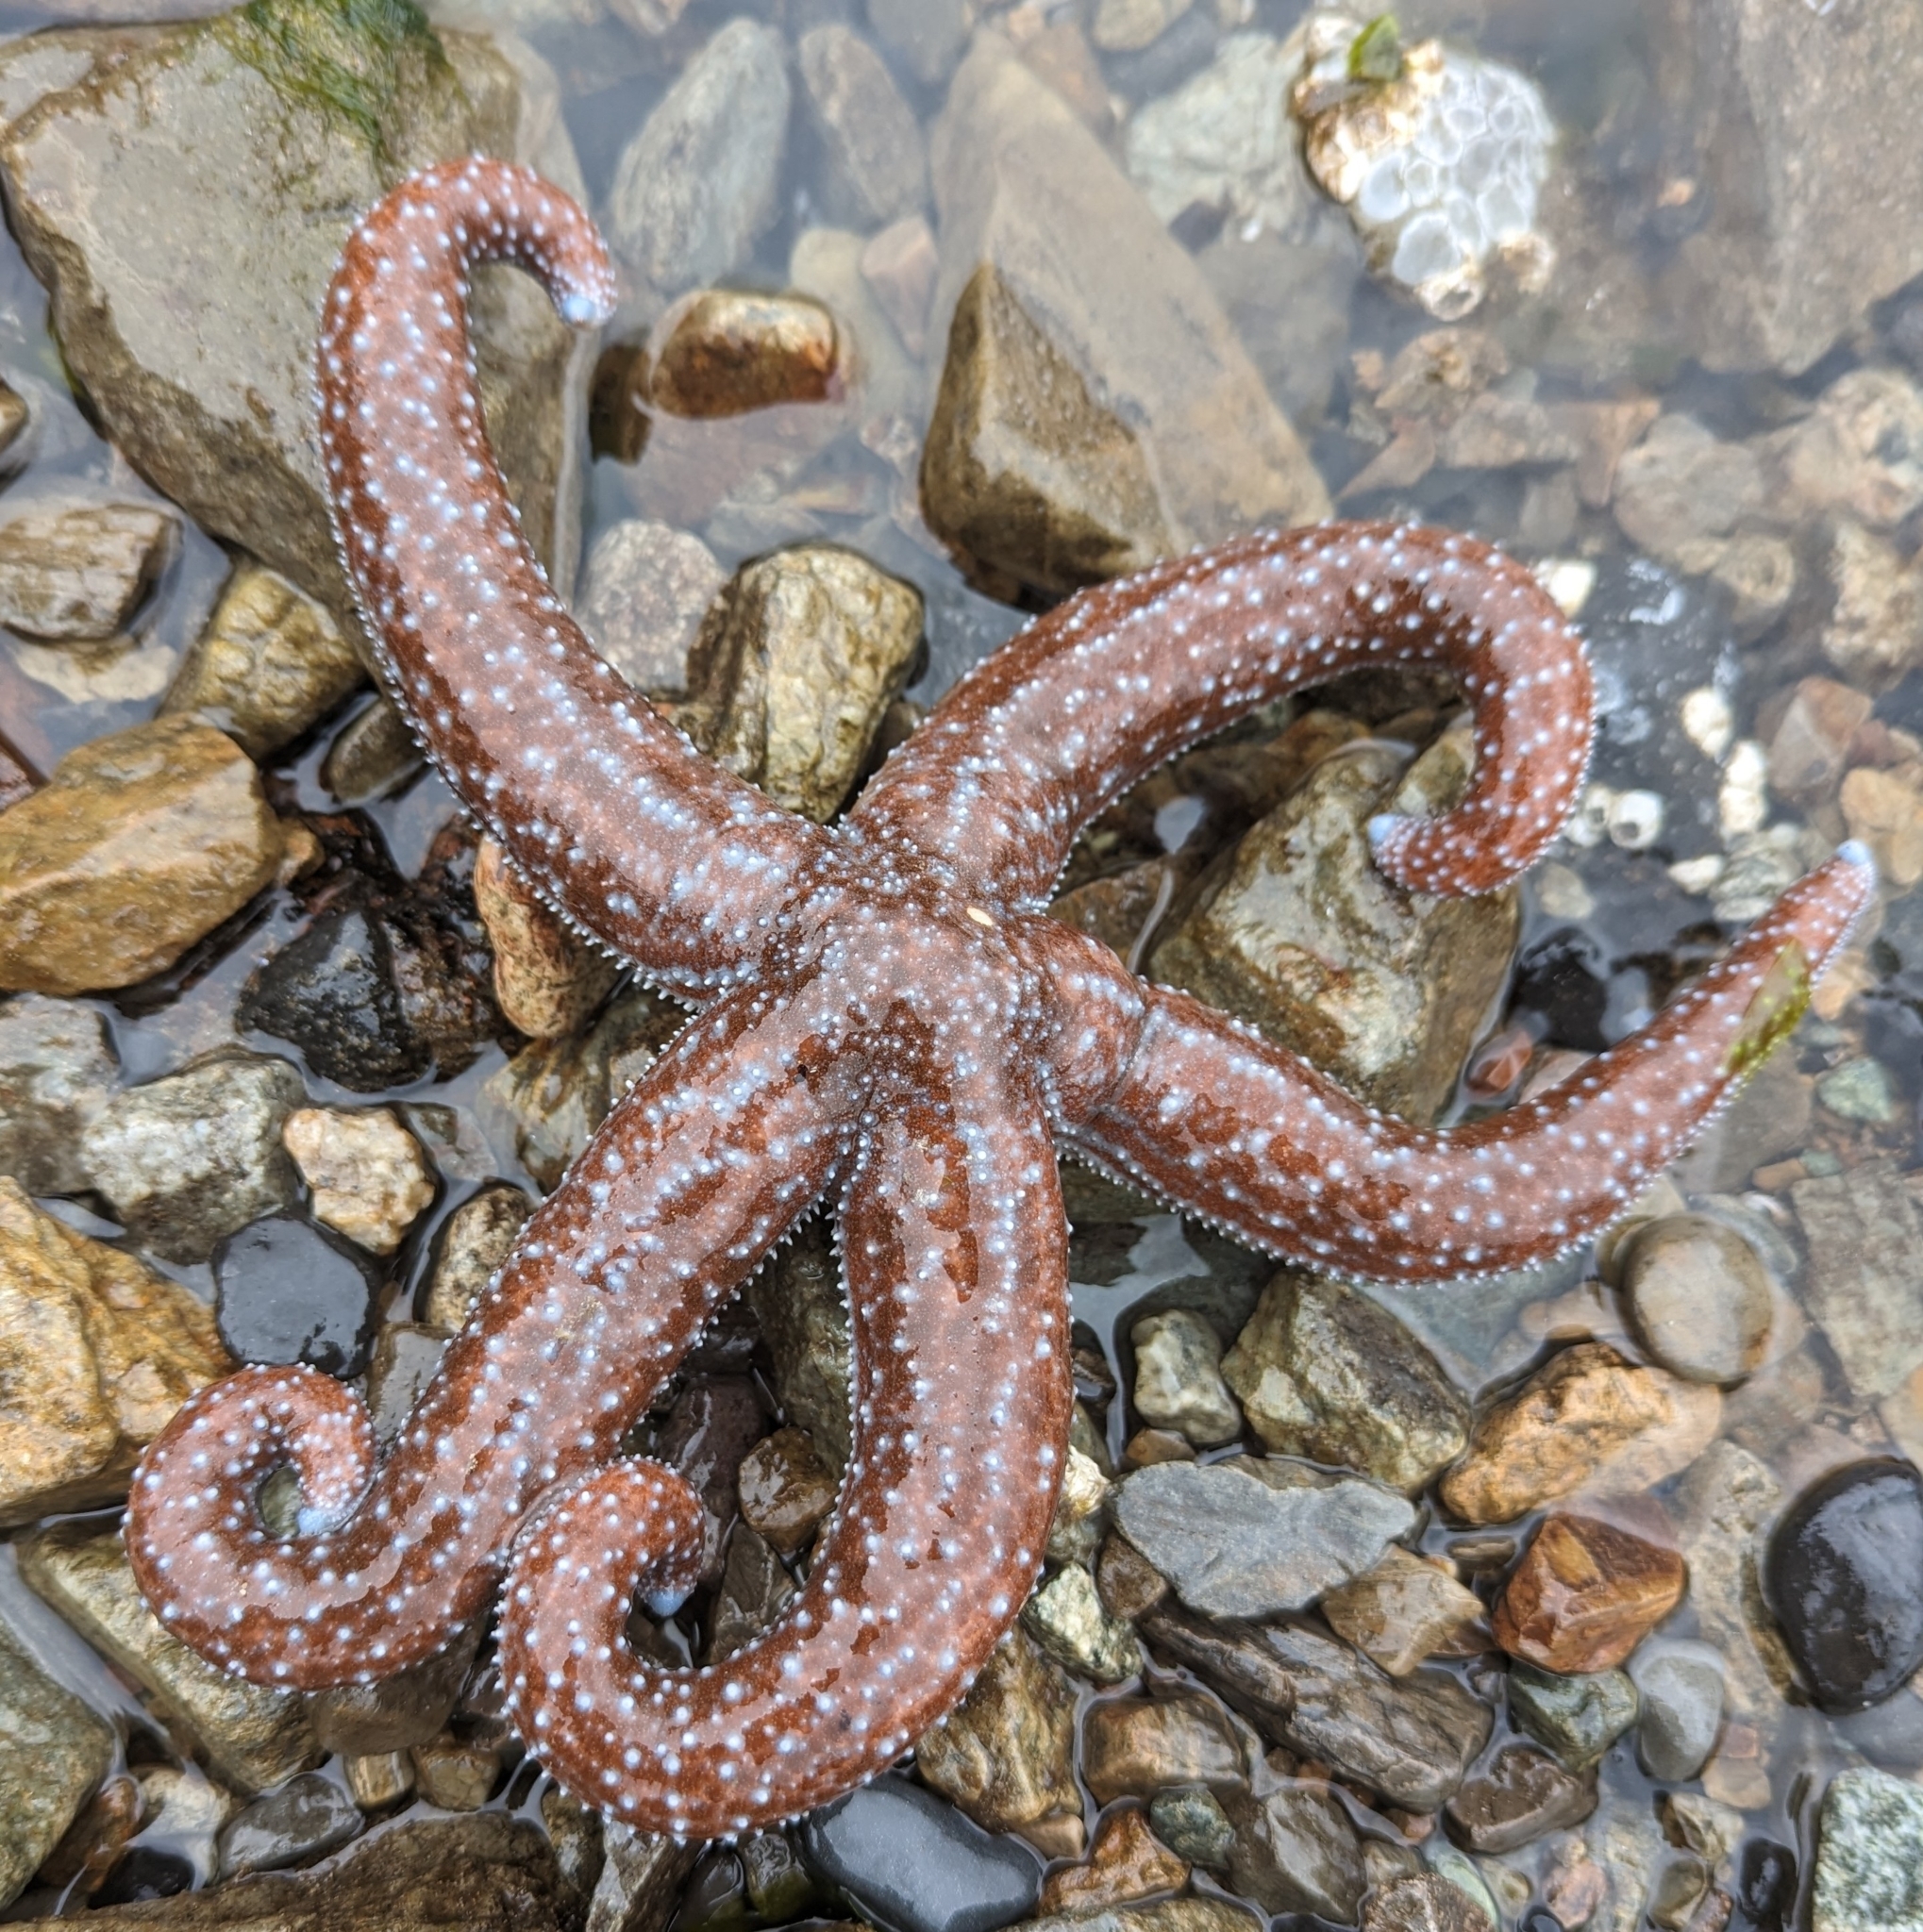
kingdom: Animalia
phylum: Echinodermata
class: Asteroidea
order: Forcipulatida
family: Asteriidae
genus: Evasterias
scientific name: Evasterias troschelii
